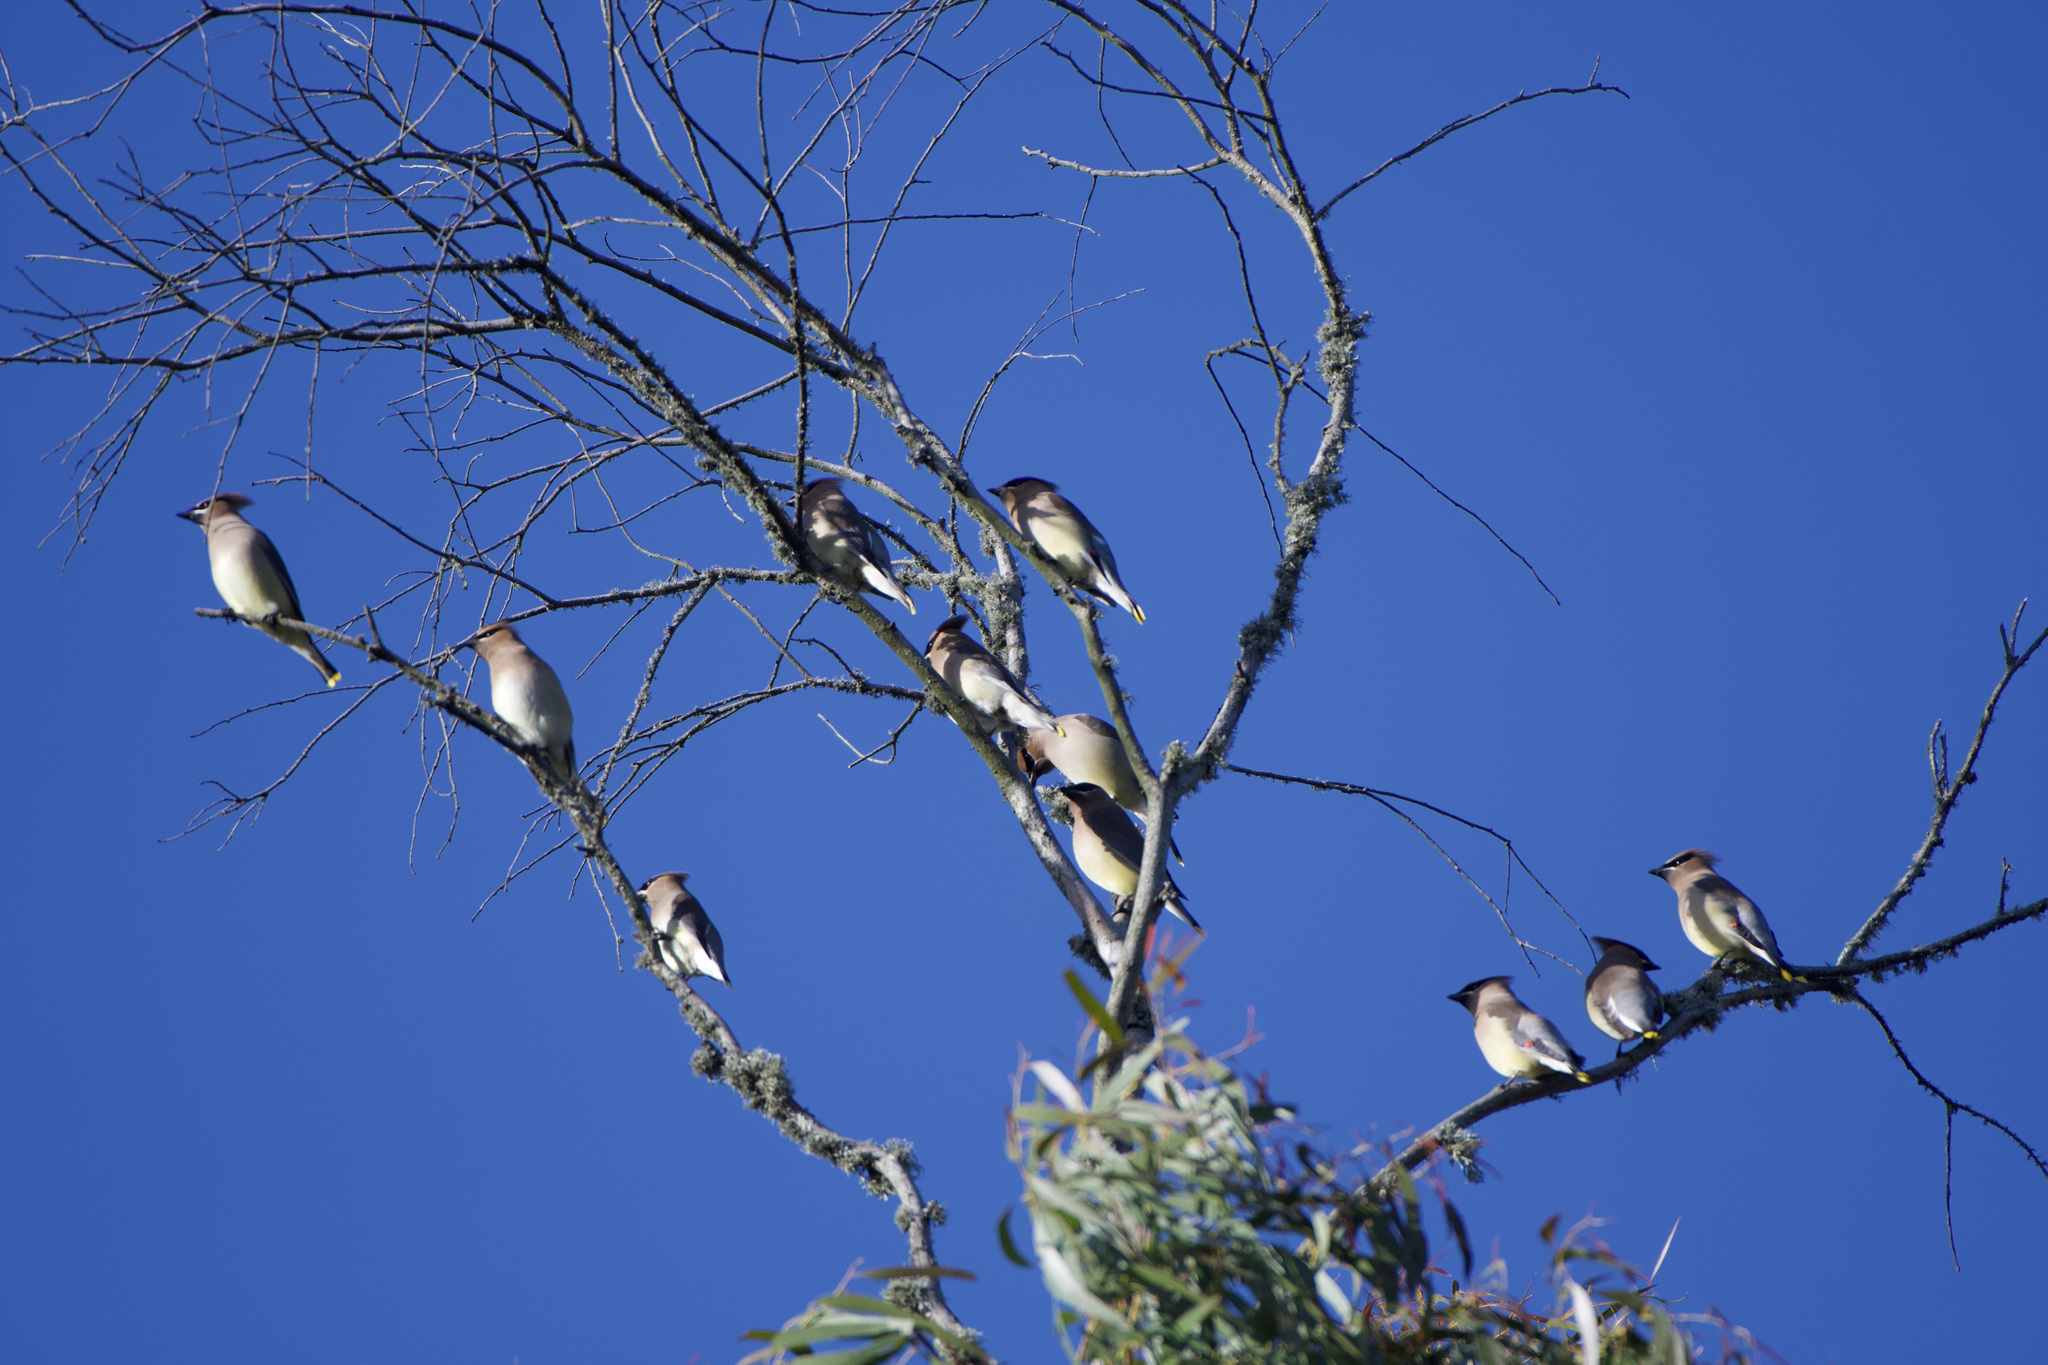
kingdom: Animalia
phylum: Chordata
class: Aves
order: Passeriformes
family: Bombycillidae
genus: Bombycilla
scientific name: Bombycilla cedrorum
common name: Cedar waxwing
